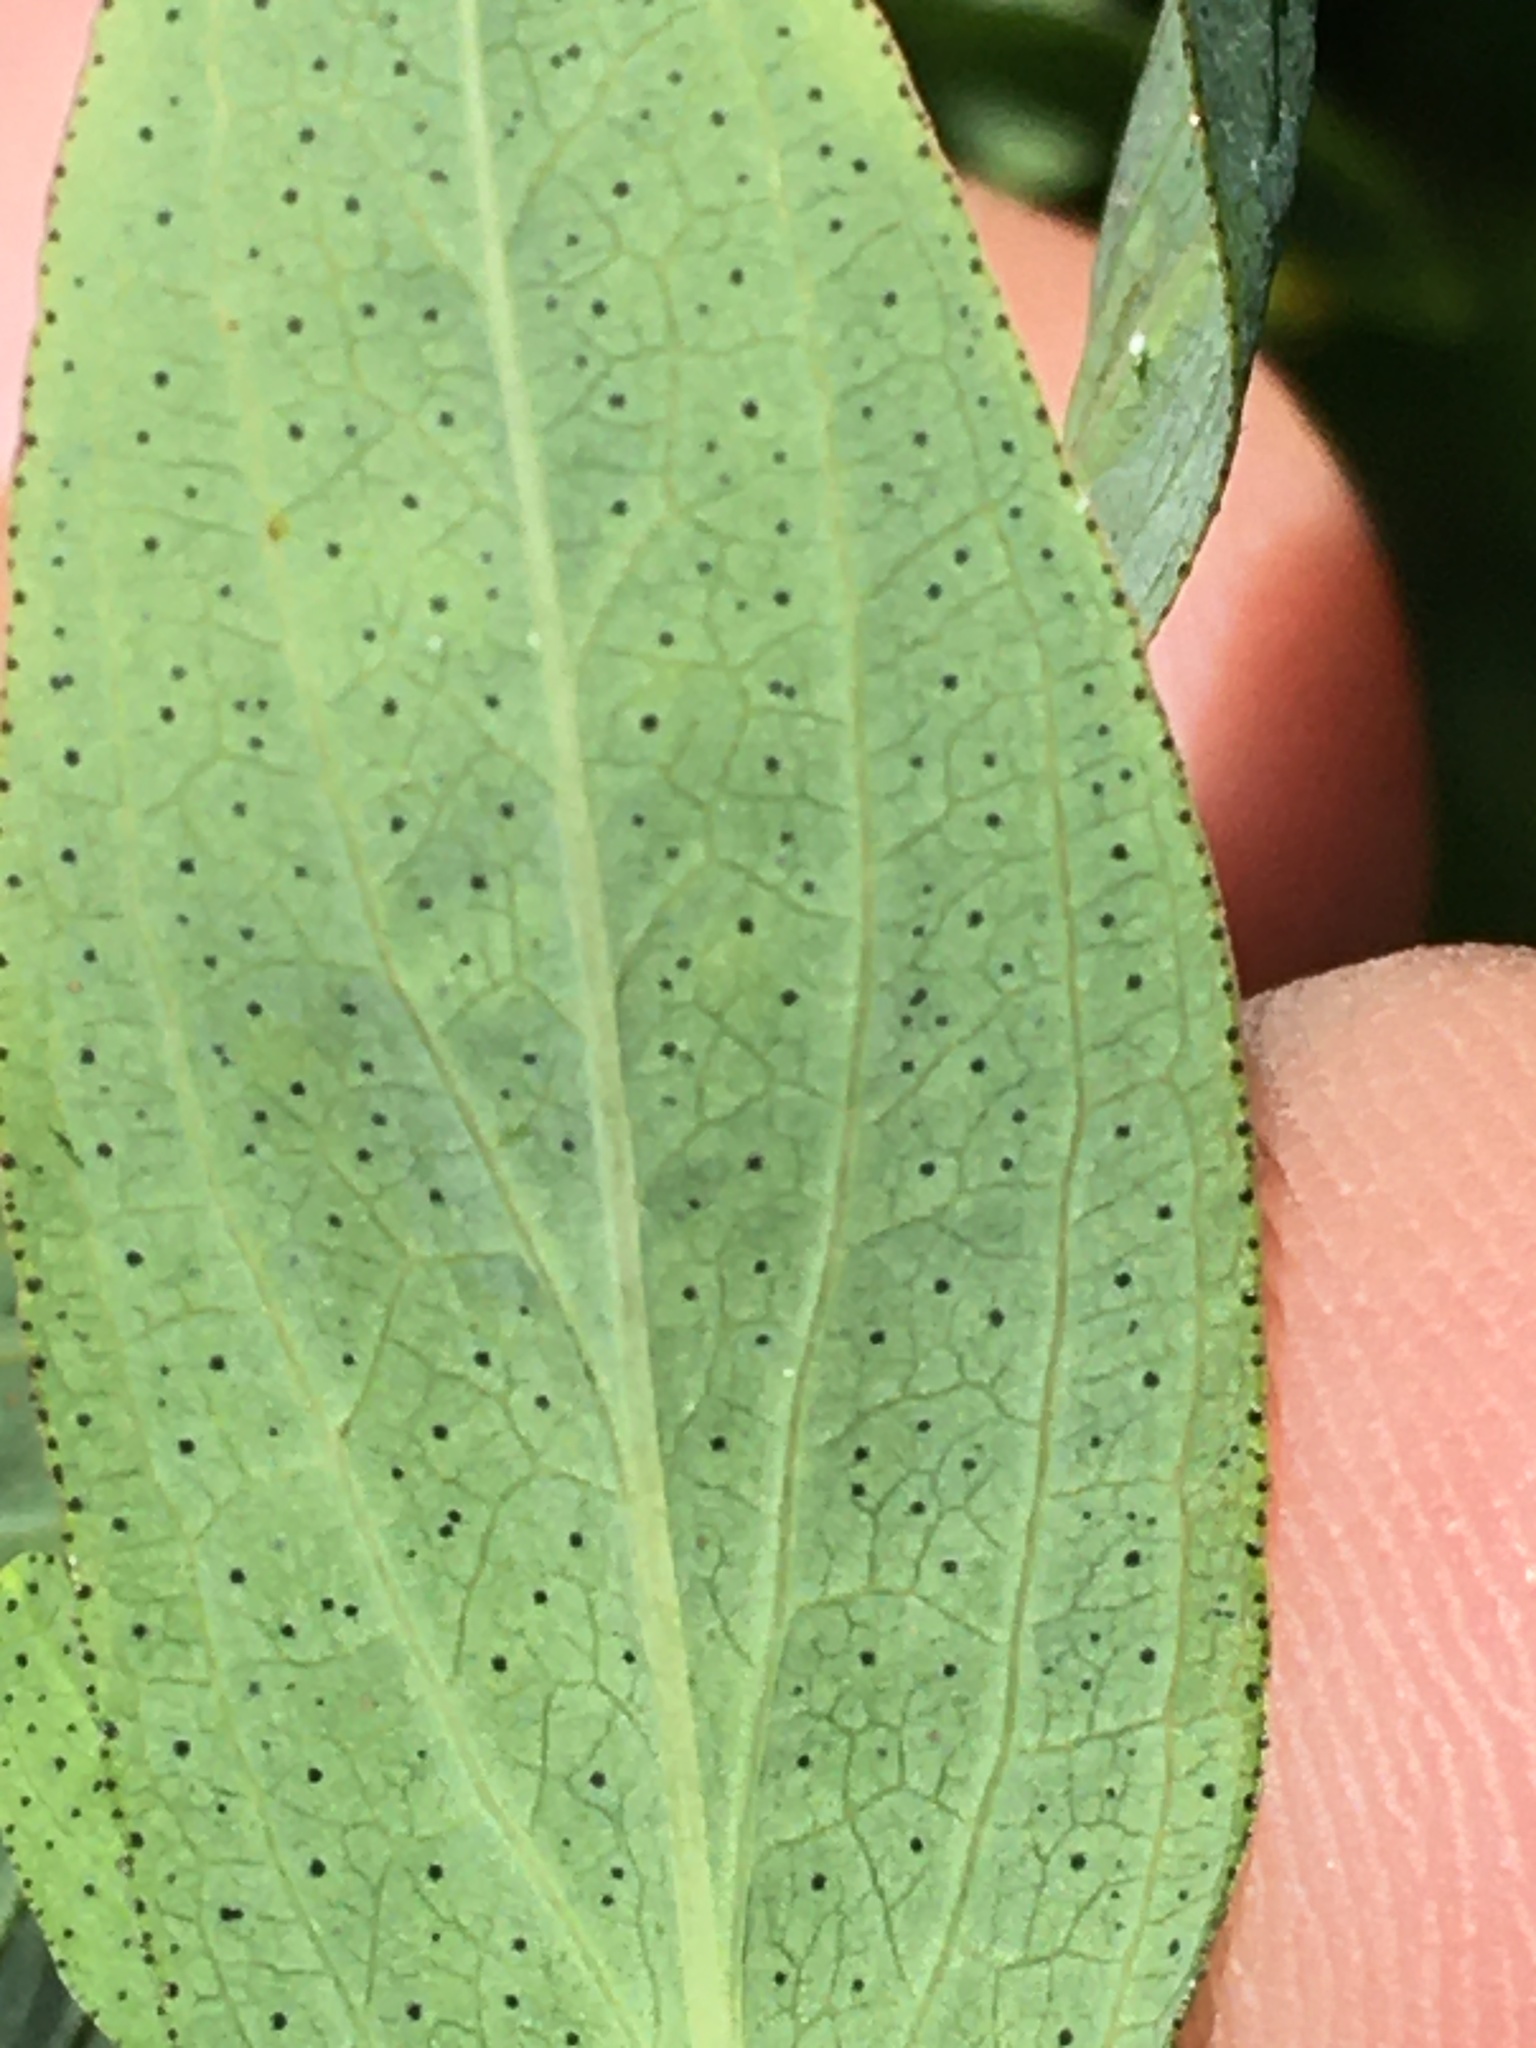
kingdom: Plantae
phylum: Tracheophyta
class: Magnoliopsida
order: Malpighiales
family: Hypericaceae
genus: Hypericum
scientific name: Hypericum punctatum
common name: Spotted st. john's-wort
